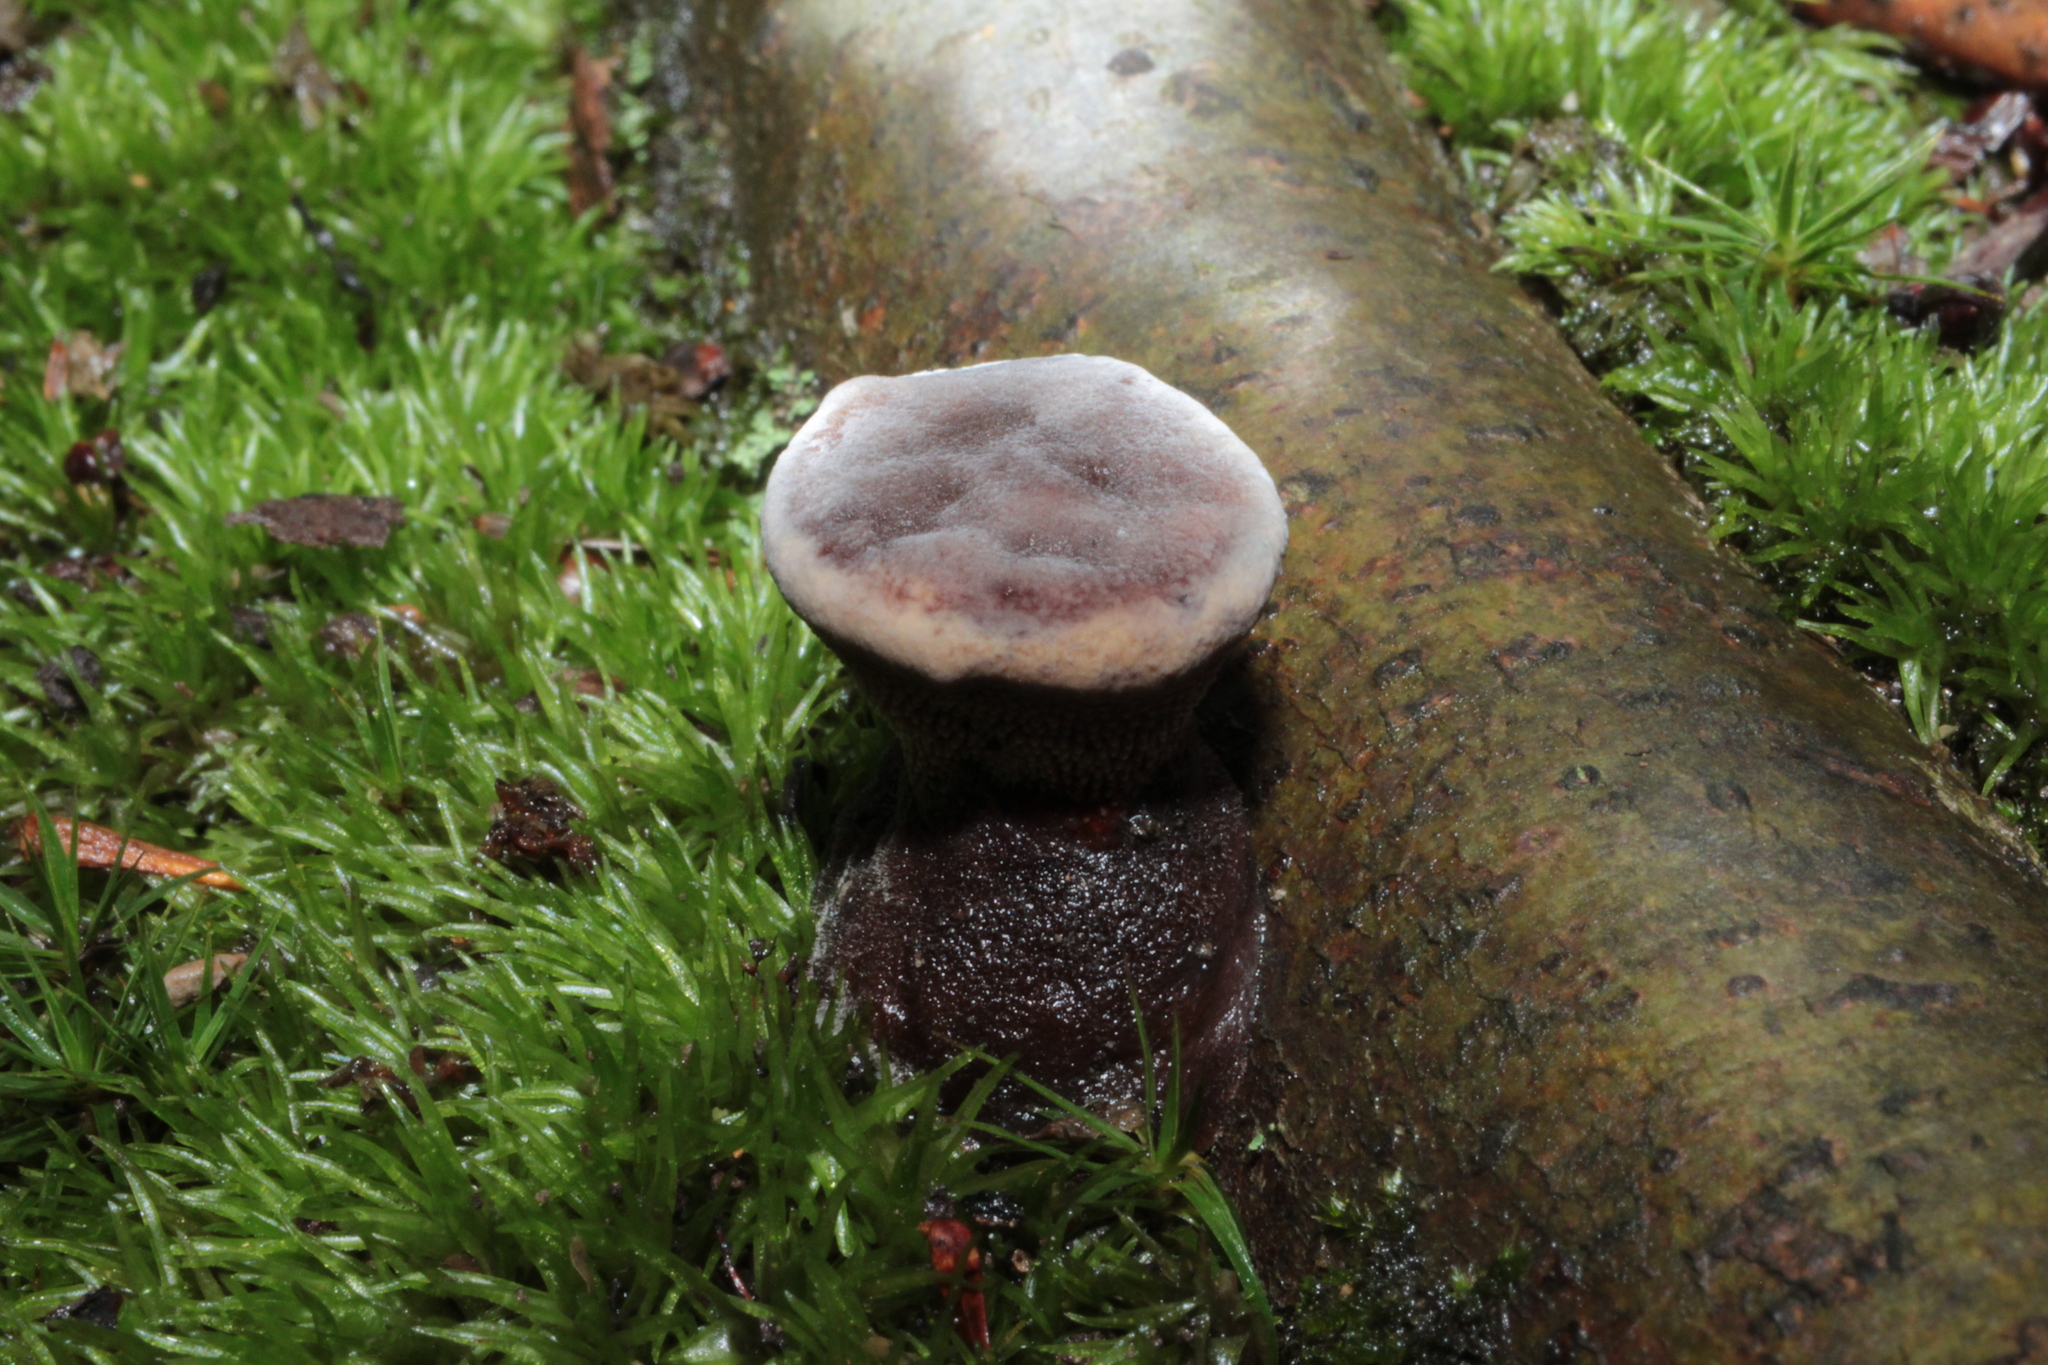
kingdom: Fungi
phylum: Basidiomycota
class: Agaricomycetes
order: Thelephorales
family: Bankeraceae
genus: Hydnellum
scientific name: Hydnellum ferrugineum
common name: Mealy tooth
